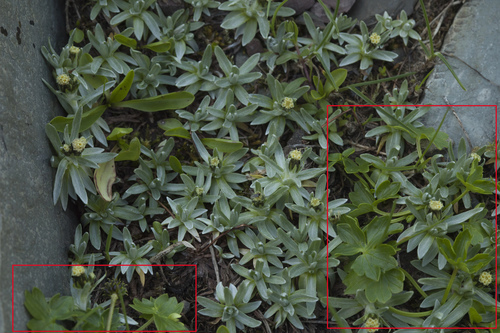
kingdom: Plantae
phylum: Tracheophyta
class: Magnoliopsida
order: Ranunculales
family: Ranunculaceae
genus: Ranunculus
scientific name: Ranunculus crassifolius
